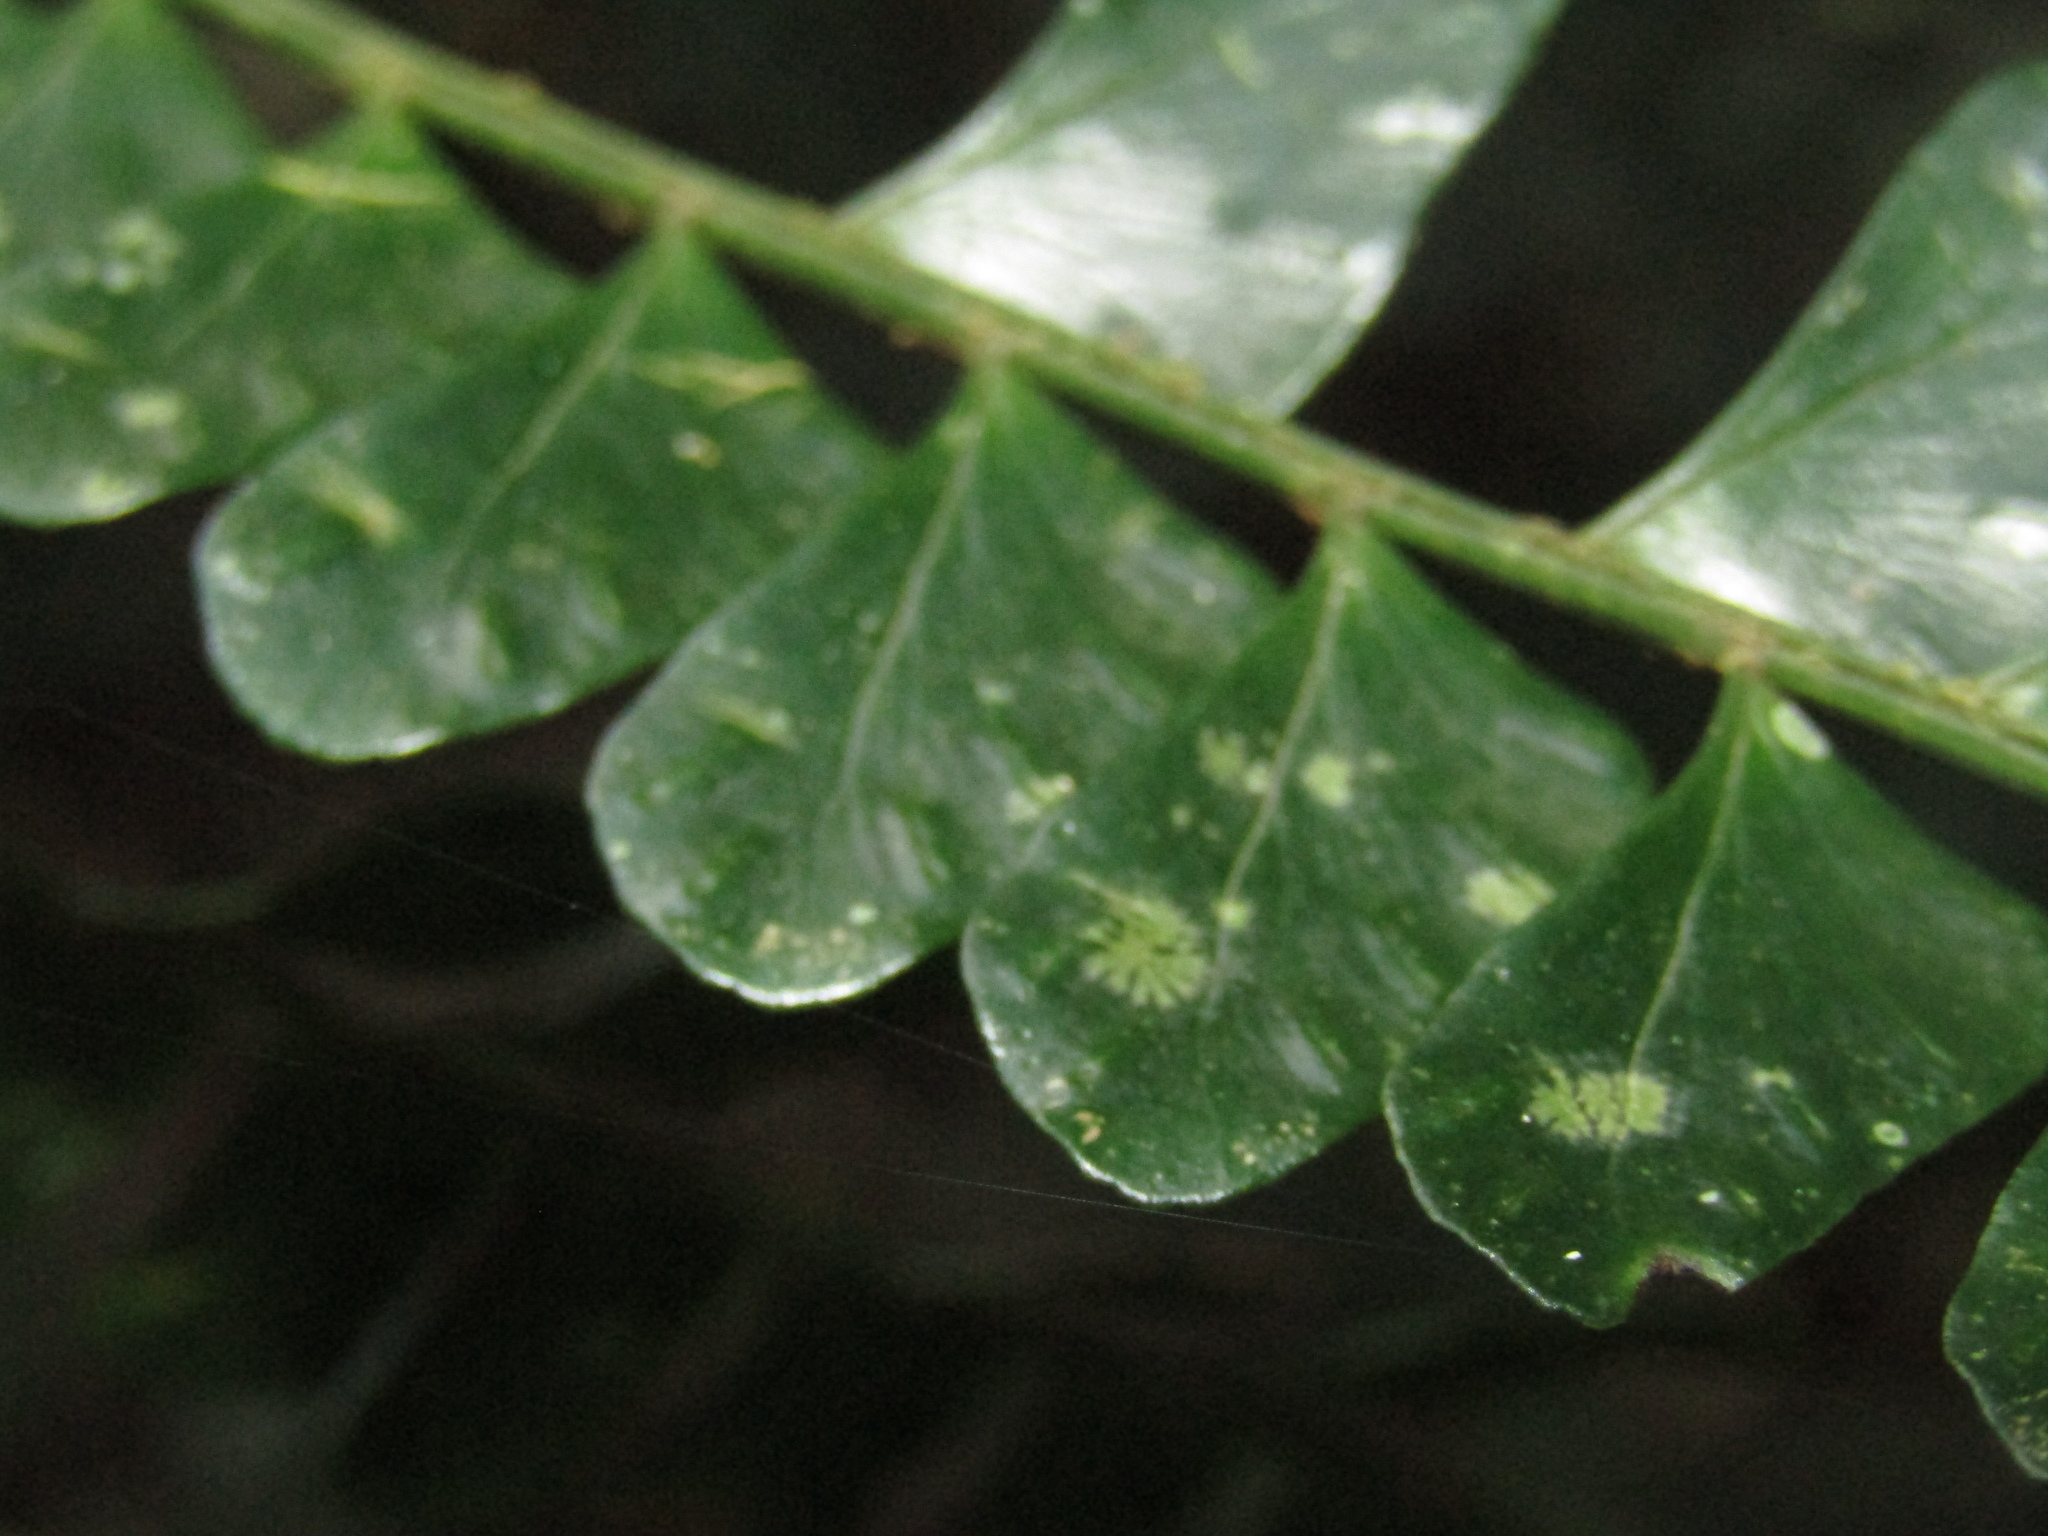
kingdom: Plantae
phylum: Tracheophyta
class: Polypodiopsida
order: Polypodiales
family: Didymochlaenaceae
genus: Didymochlaena
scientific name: Didymochlaena truncatula
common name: Mahogany fern
